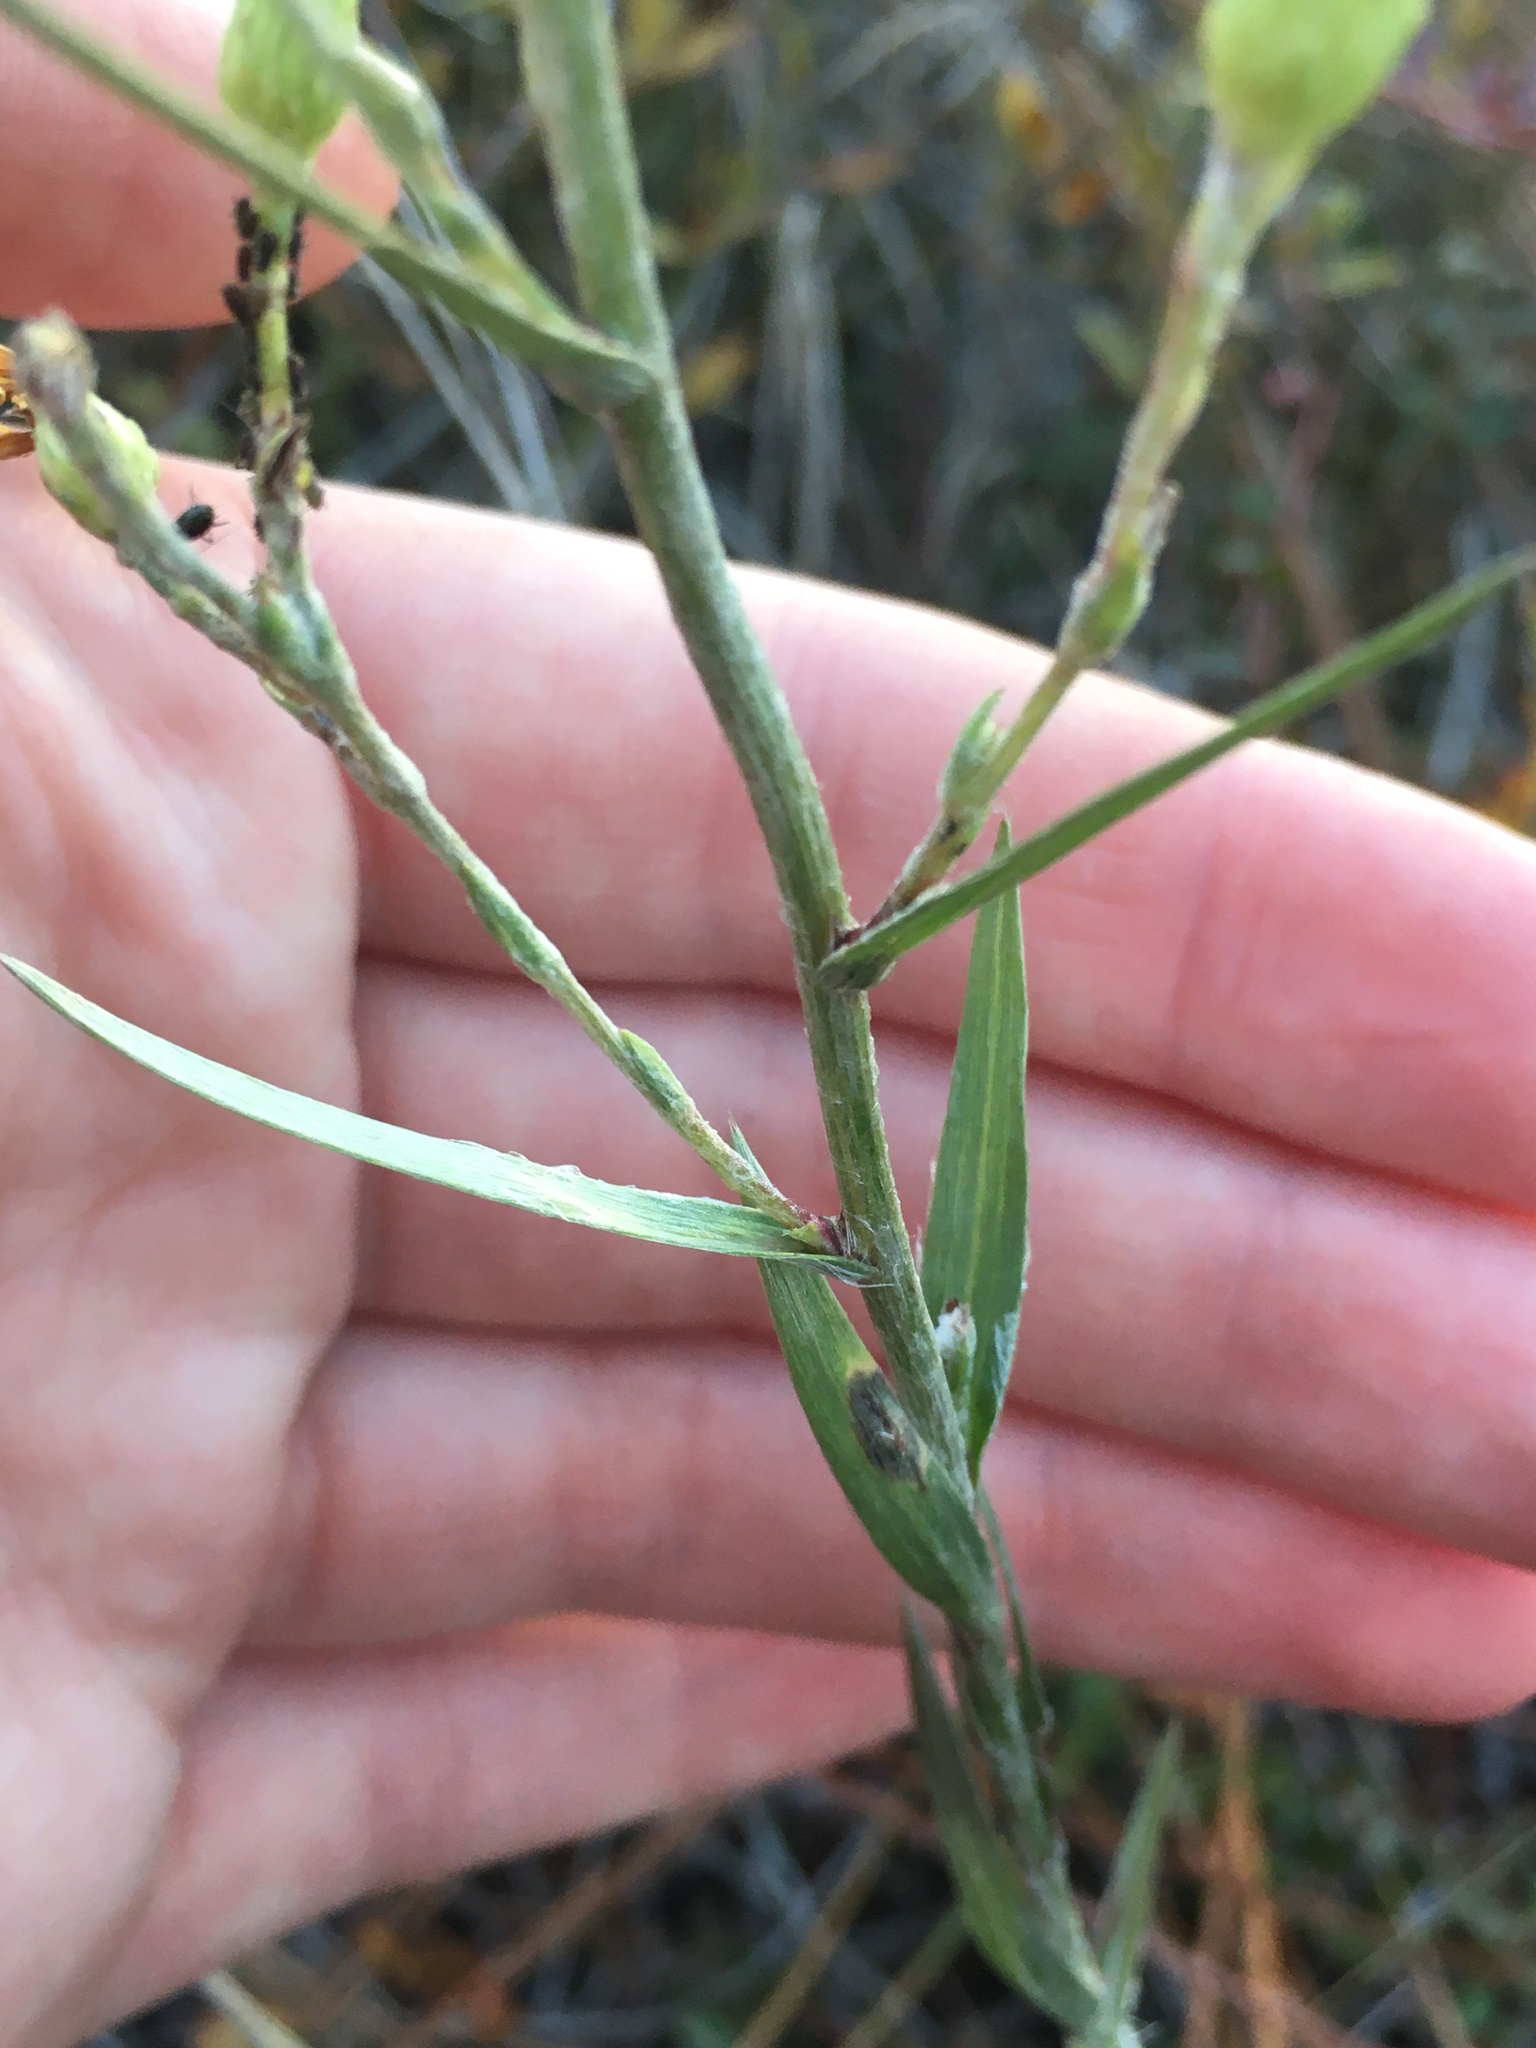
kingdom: Plantae
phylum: Tracheophyta
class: Magnoliopsida
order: Asterales
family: Asteraceae
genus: Pityopsis
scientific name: Pityopsis graminifolia
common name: Grass-leaf golden-aster
